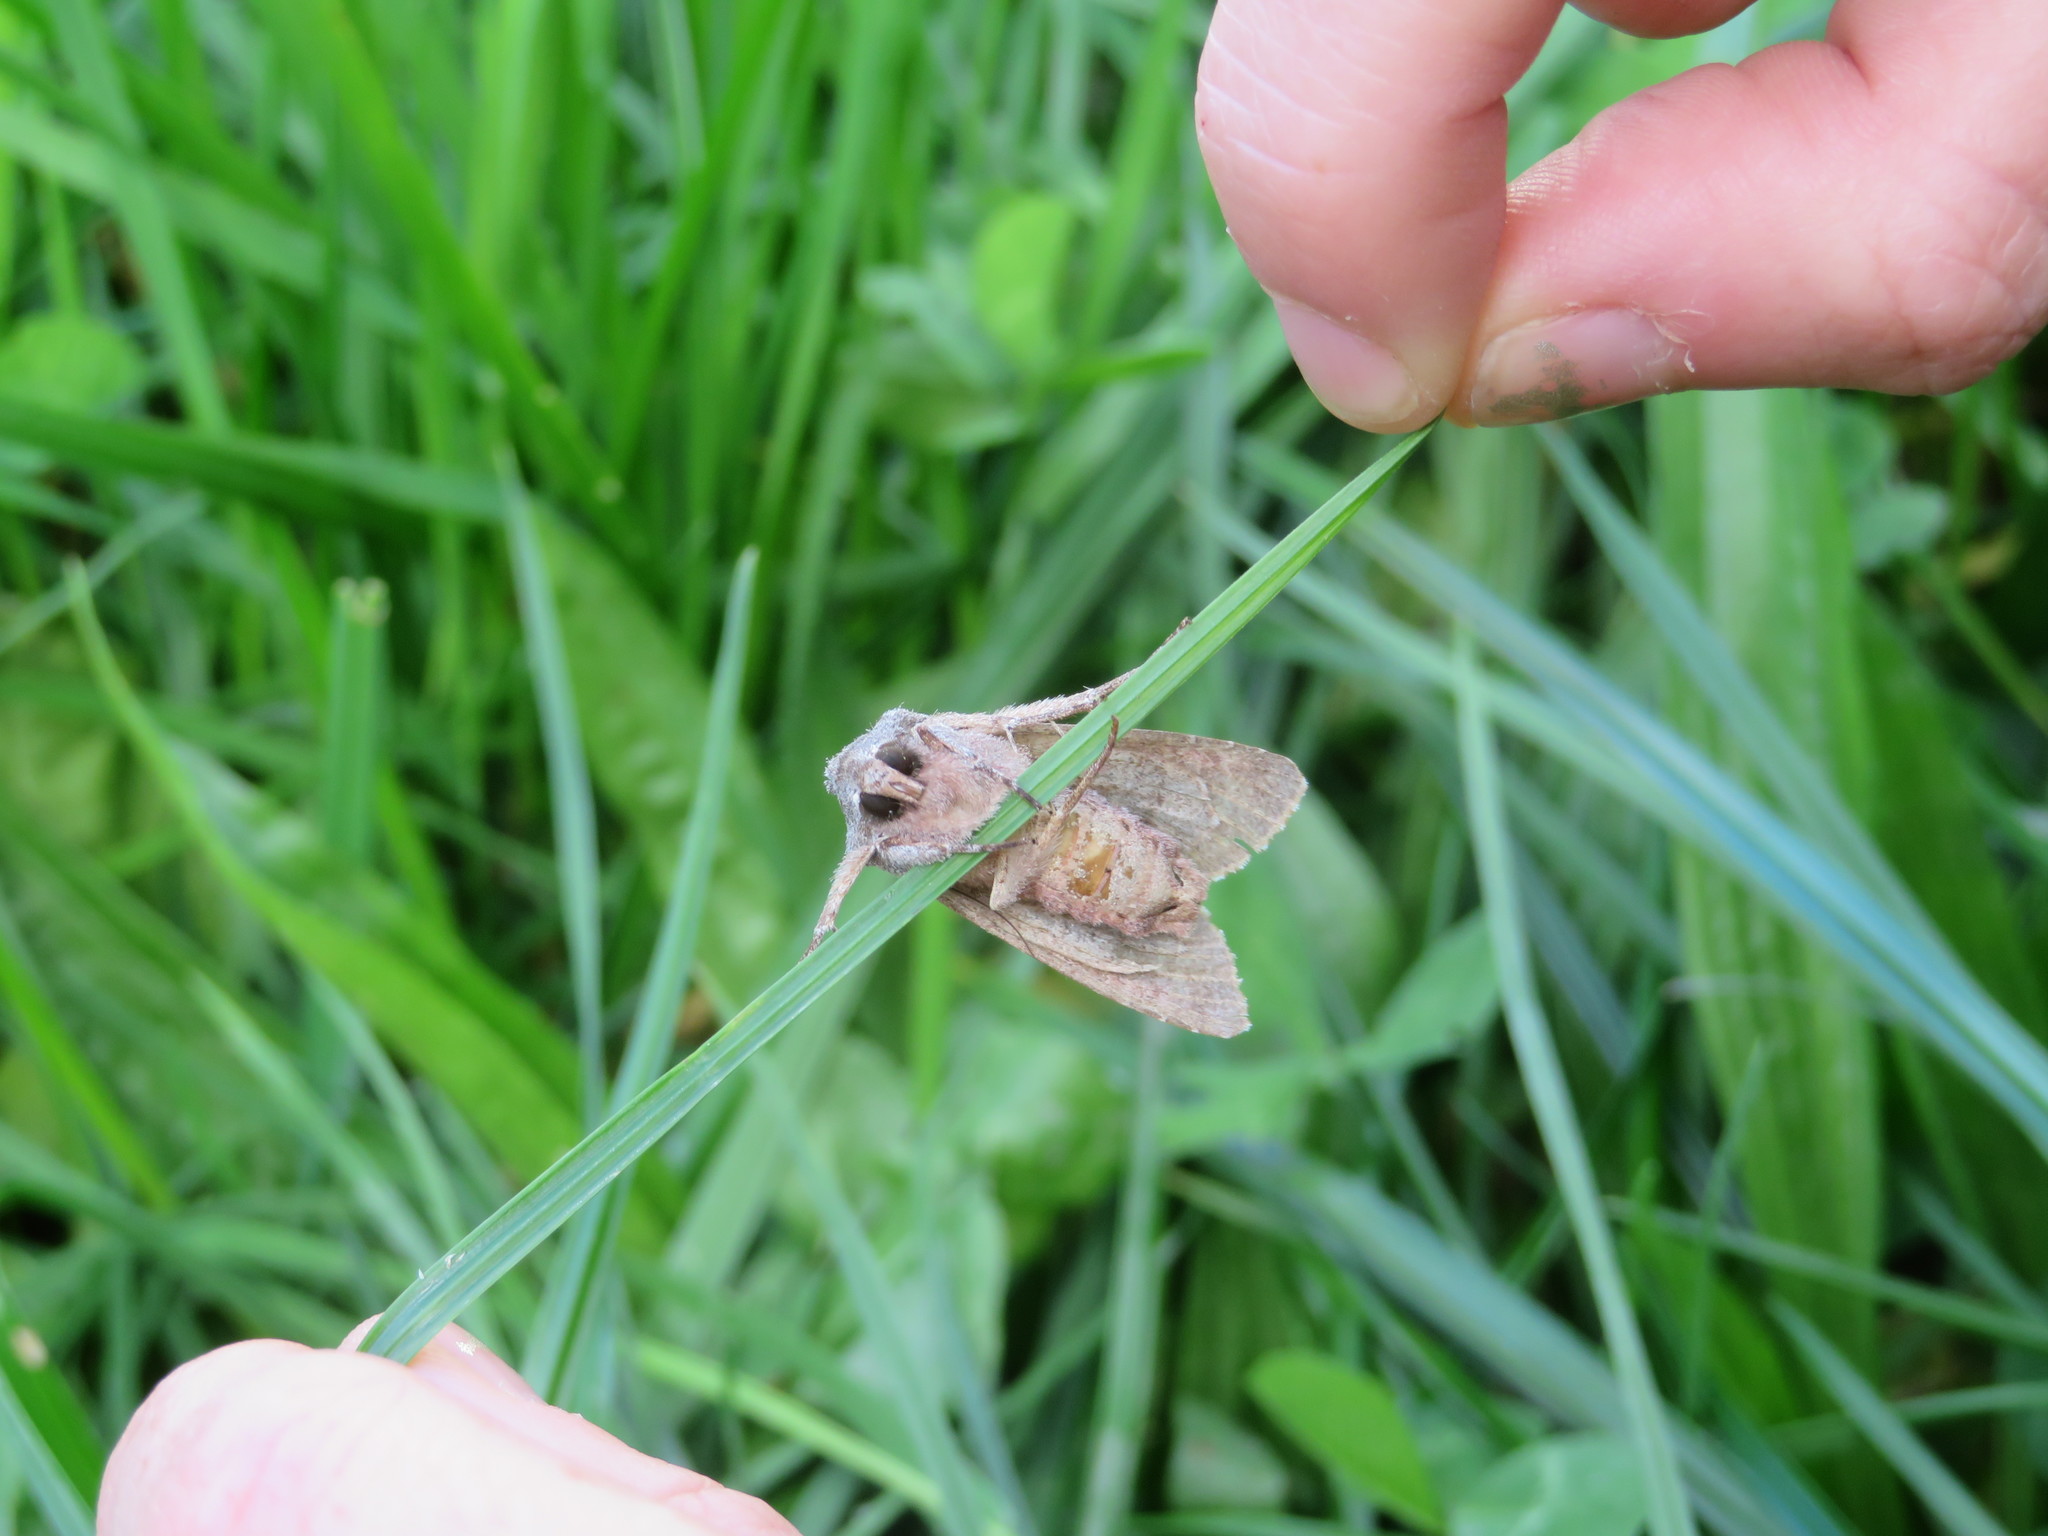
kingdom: Animalia
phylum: Arthropoda
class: Insecta
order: Lepidoptera
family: Noctuidae
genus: Ichneutica
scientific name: Ichneutica
